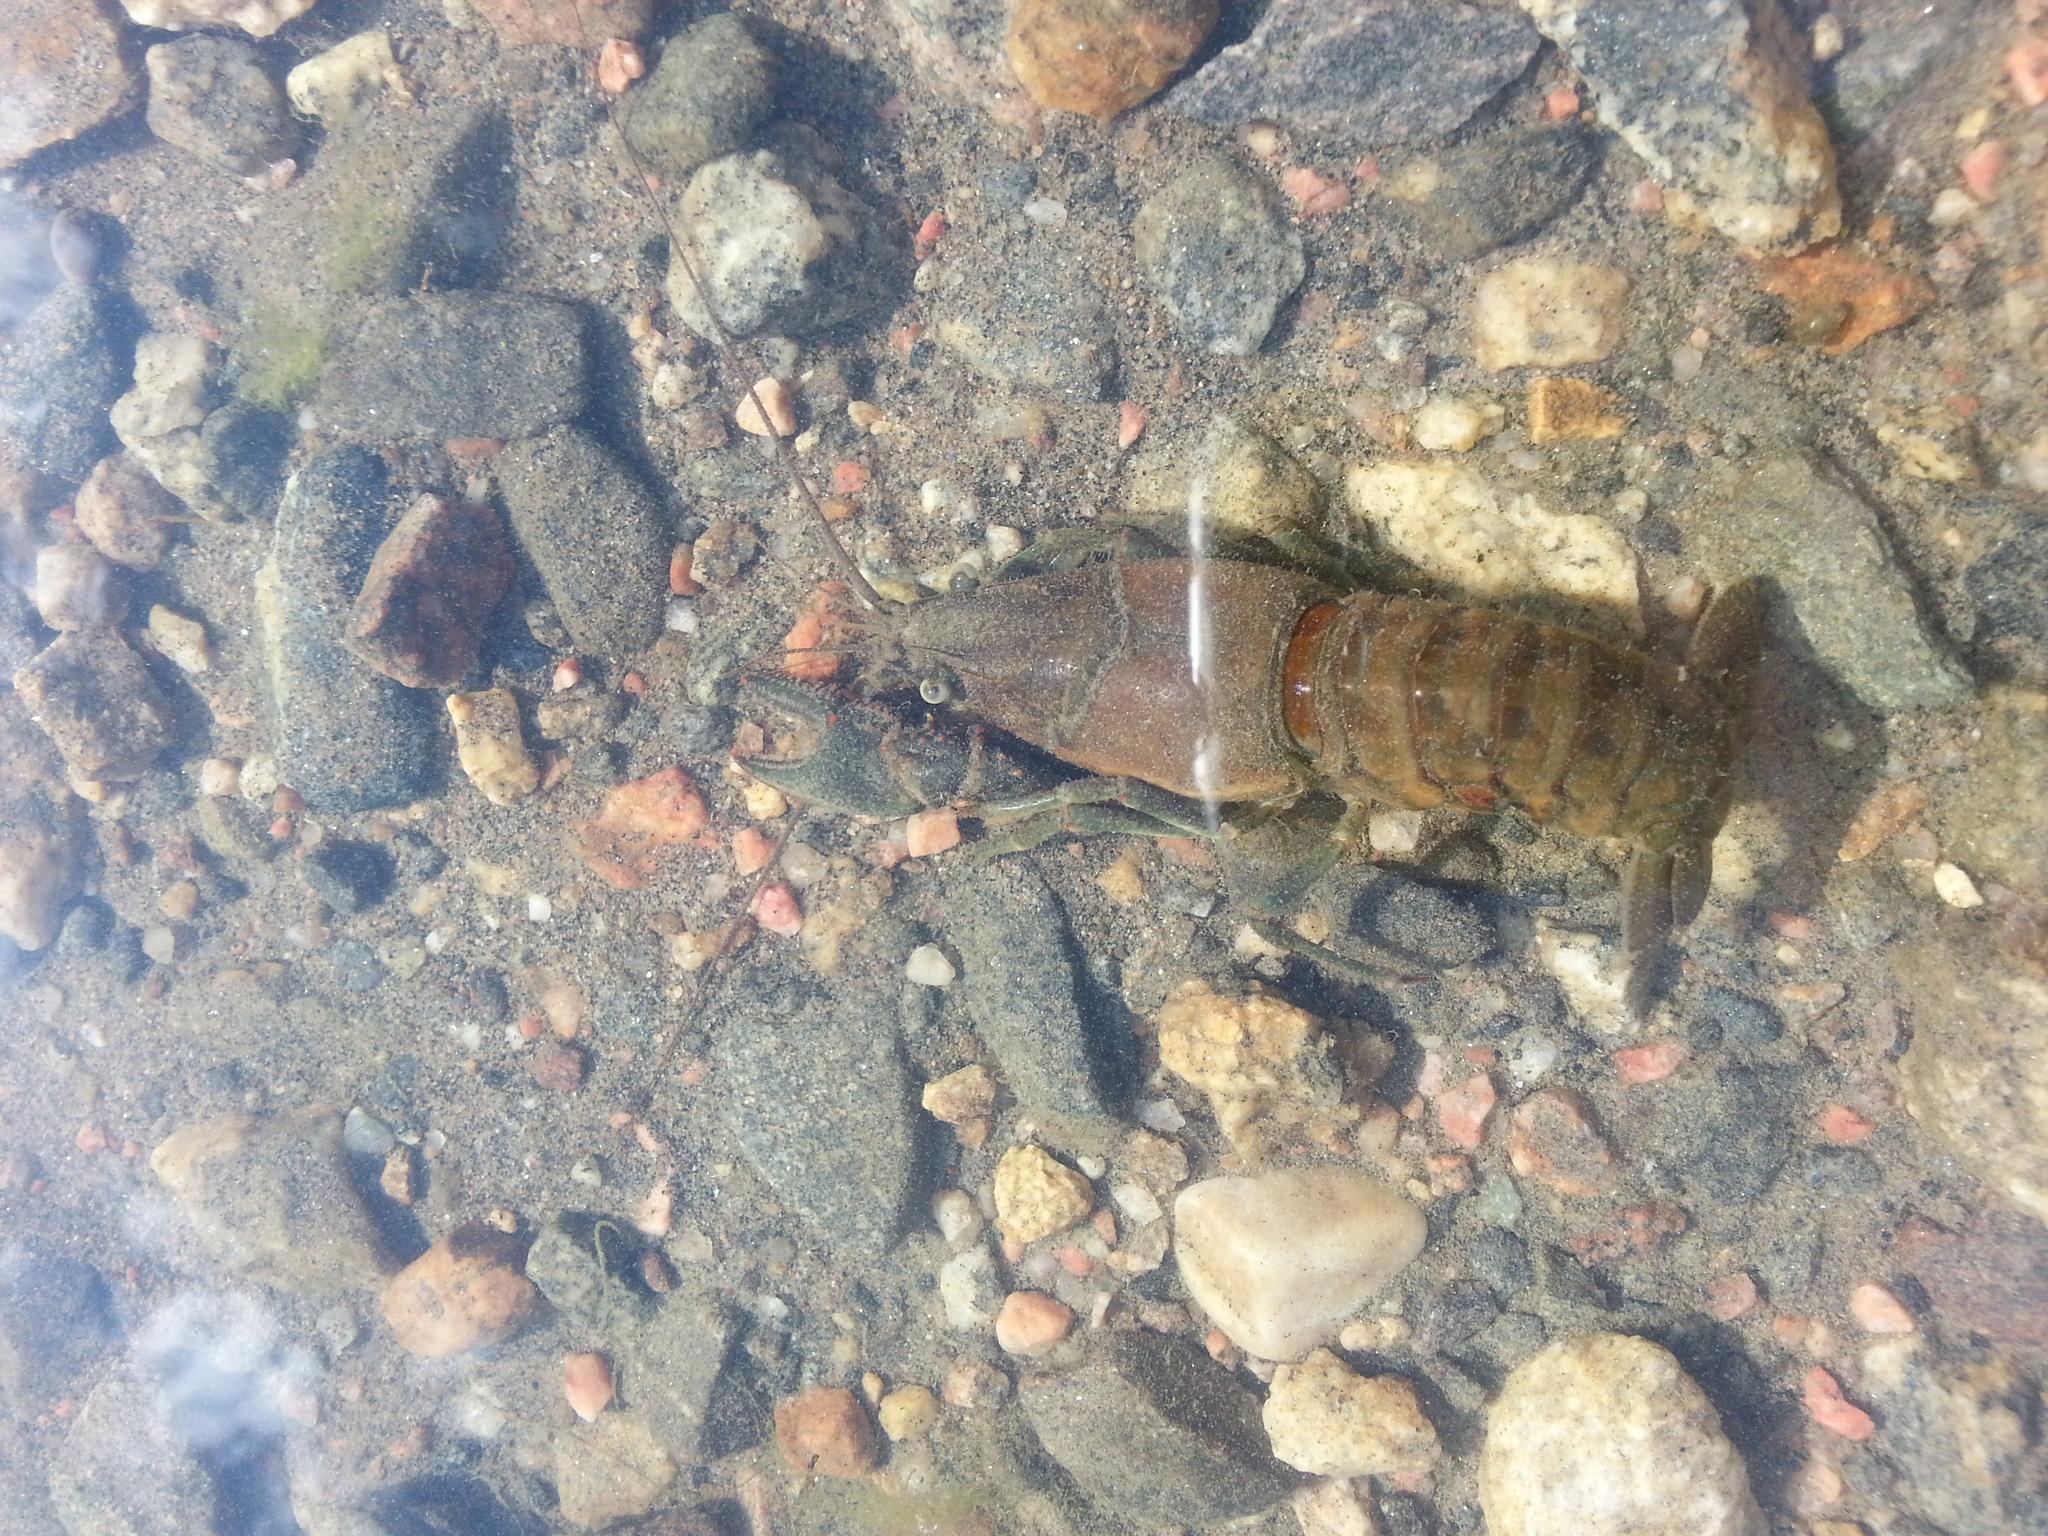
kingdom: Animalia
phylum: Arthropoda
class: Malacostraca
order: Decapoda
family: Cambaridae
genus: Faxonius
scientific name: Faxonius virilis
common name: Virile crayfish
